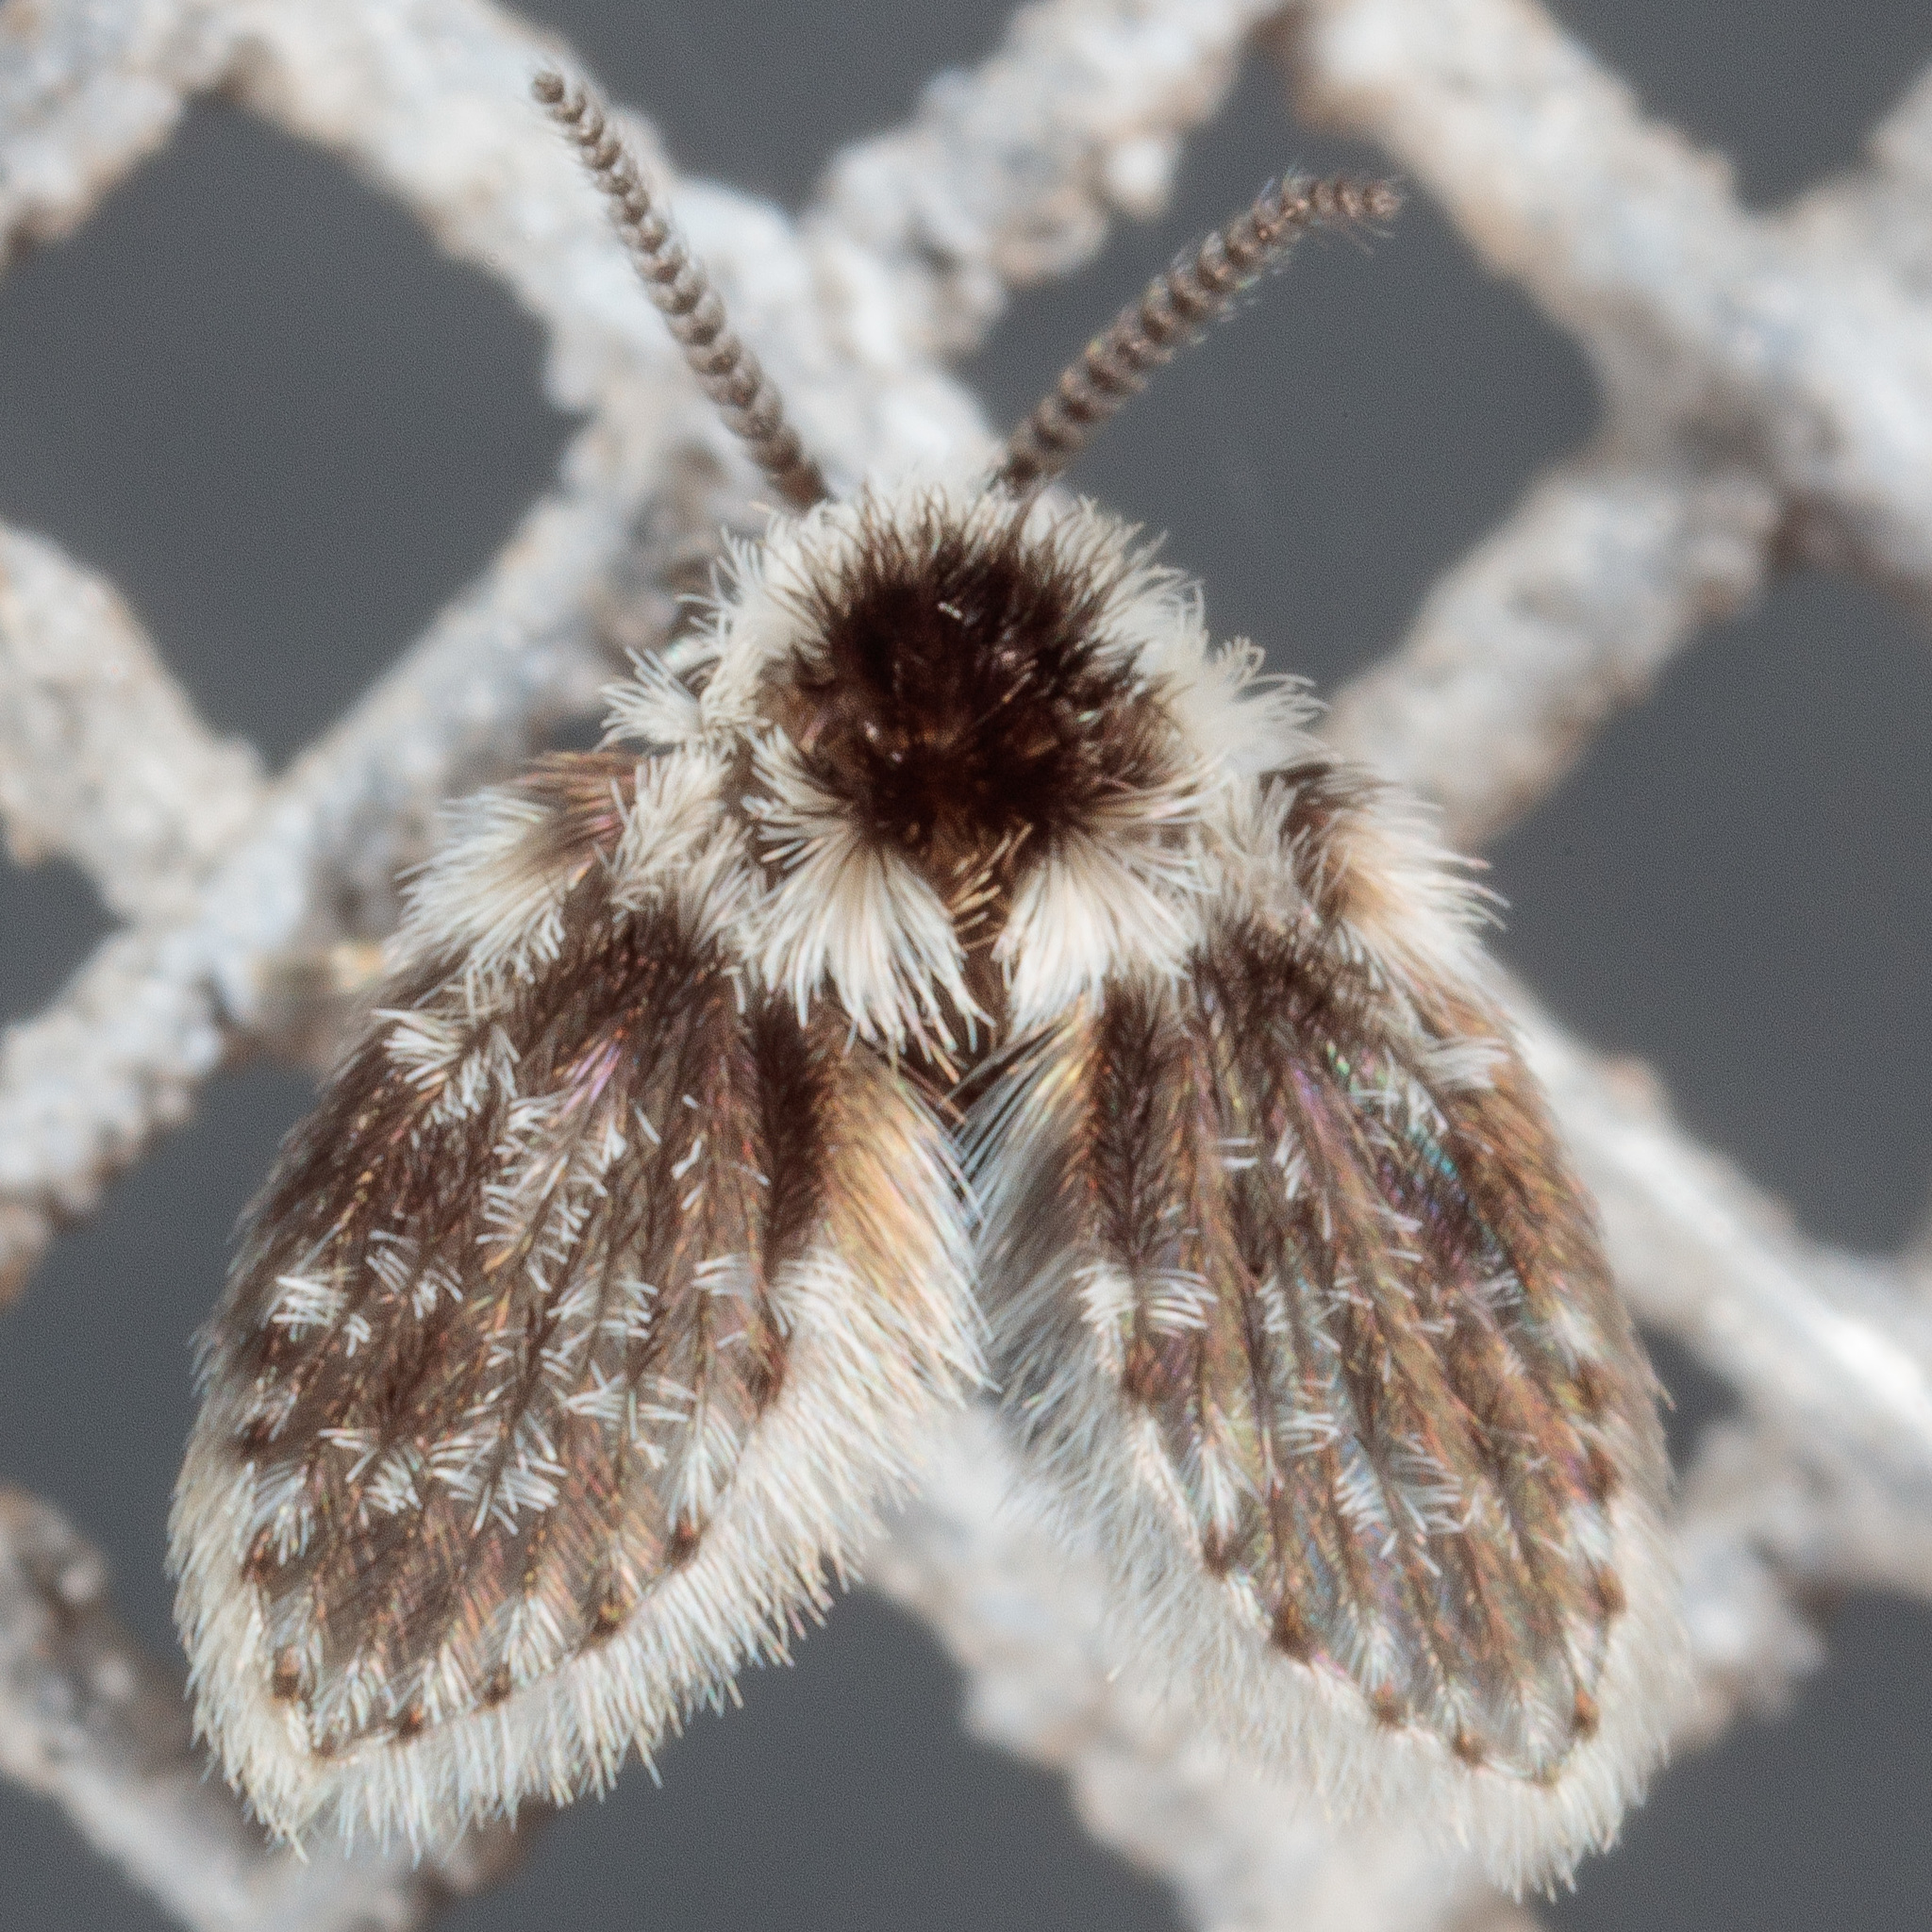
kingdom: Animalia
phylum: Arthropoda
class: Insecta
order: Diptera
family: Psychodidae
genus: Lepiseodina
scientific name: Lepiseodina
